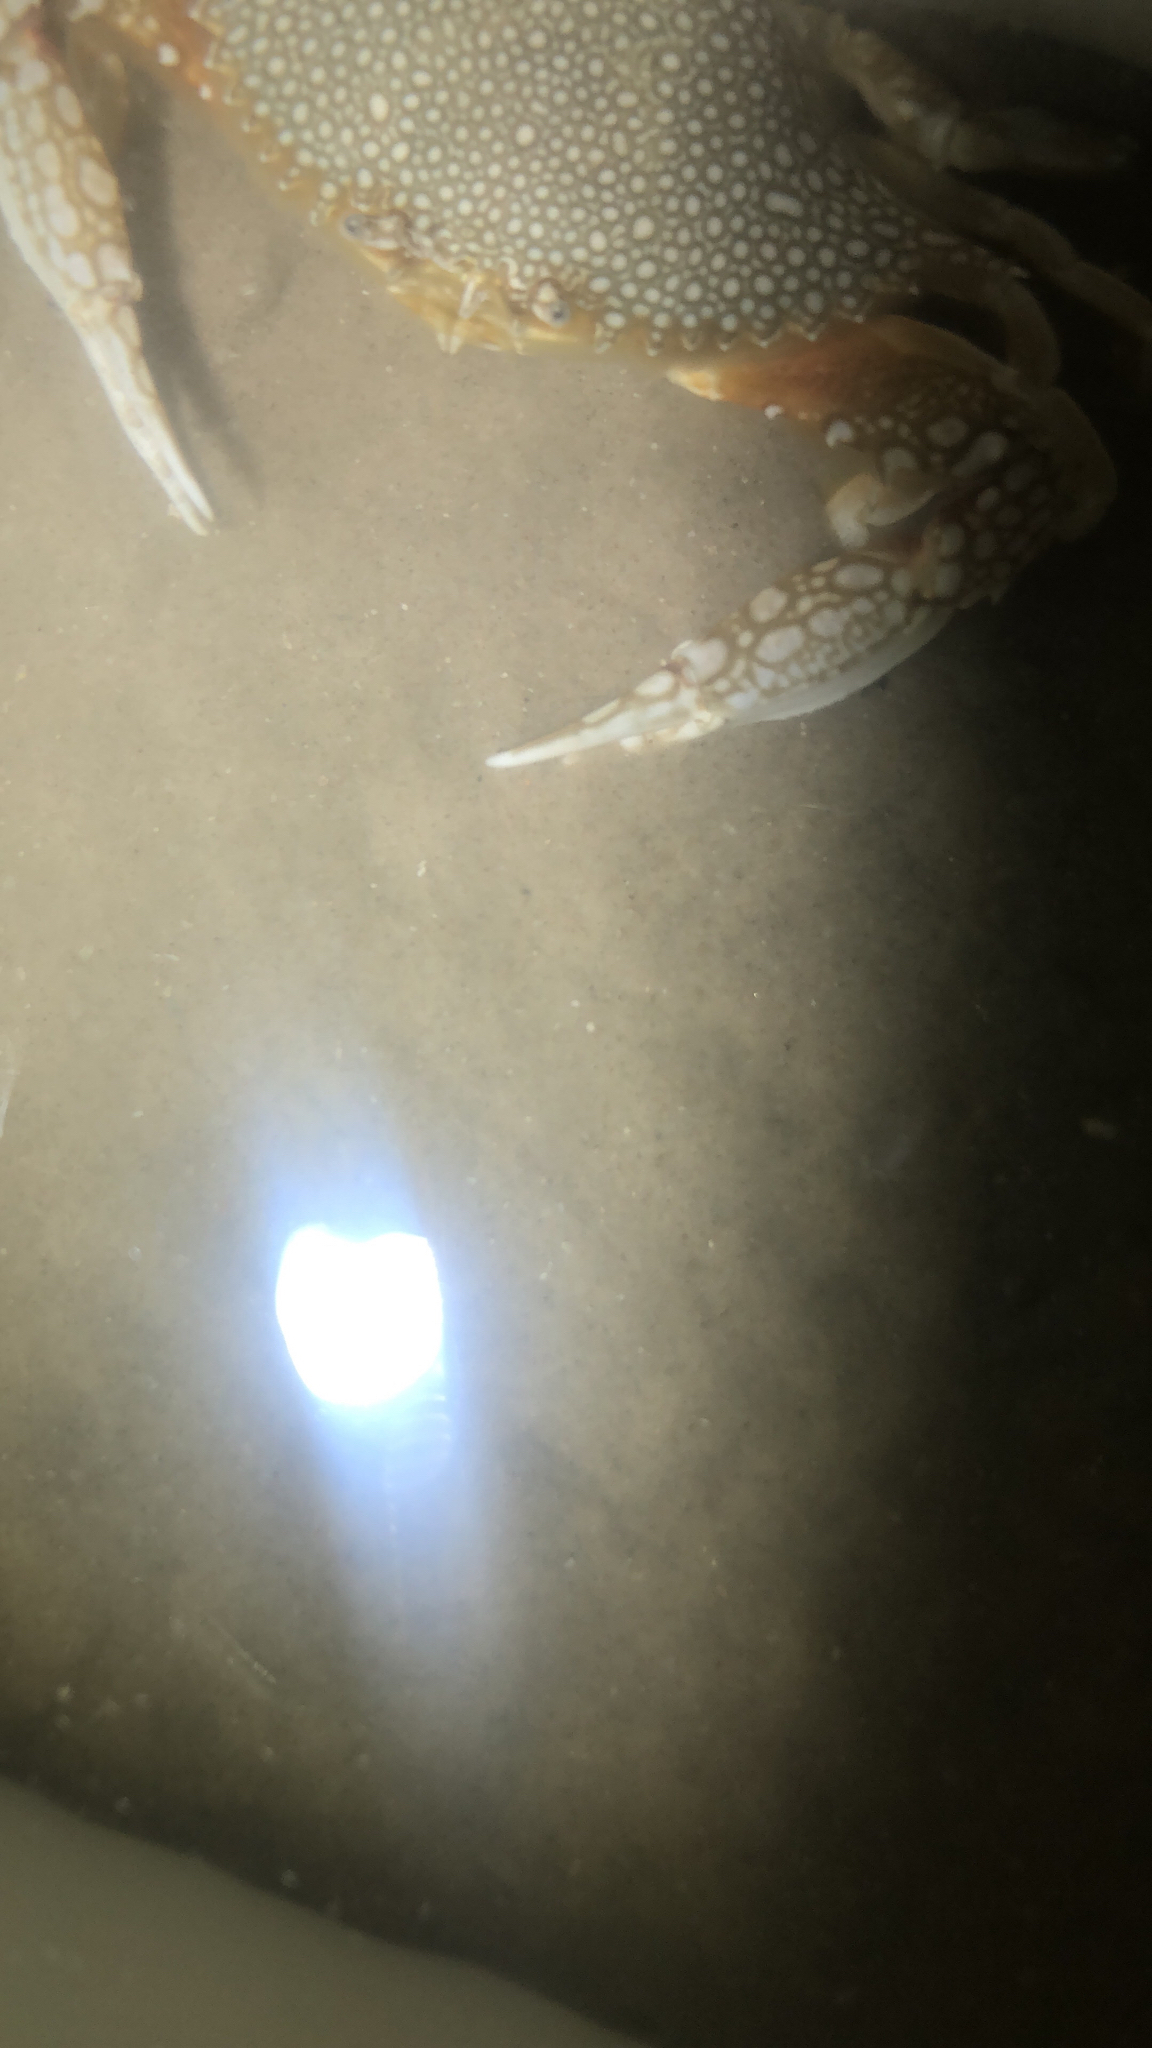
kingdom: Animalia
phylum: Arthropoda
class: Malacostraca
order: Decapoda
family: Portunidae
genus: Arenaeus
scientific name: Arenaeus cribrarius
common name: Speckled crab
